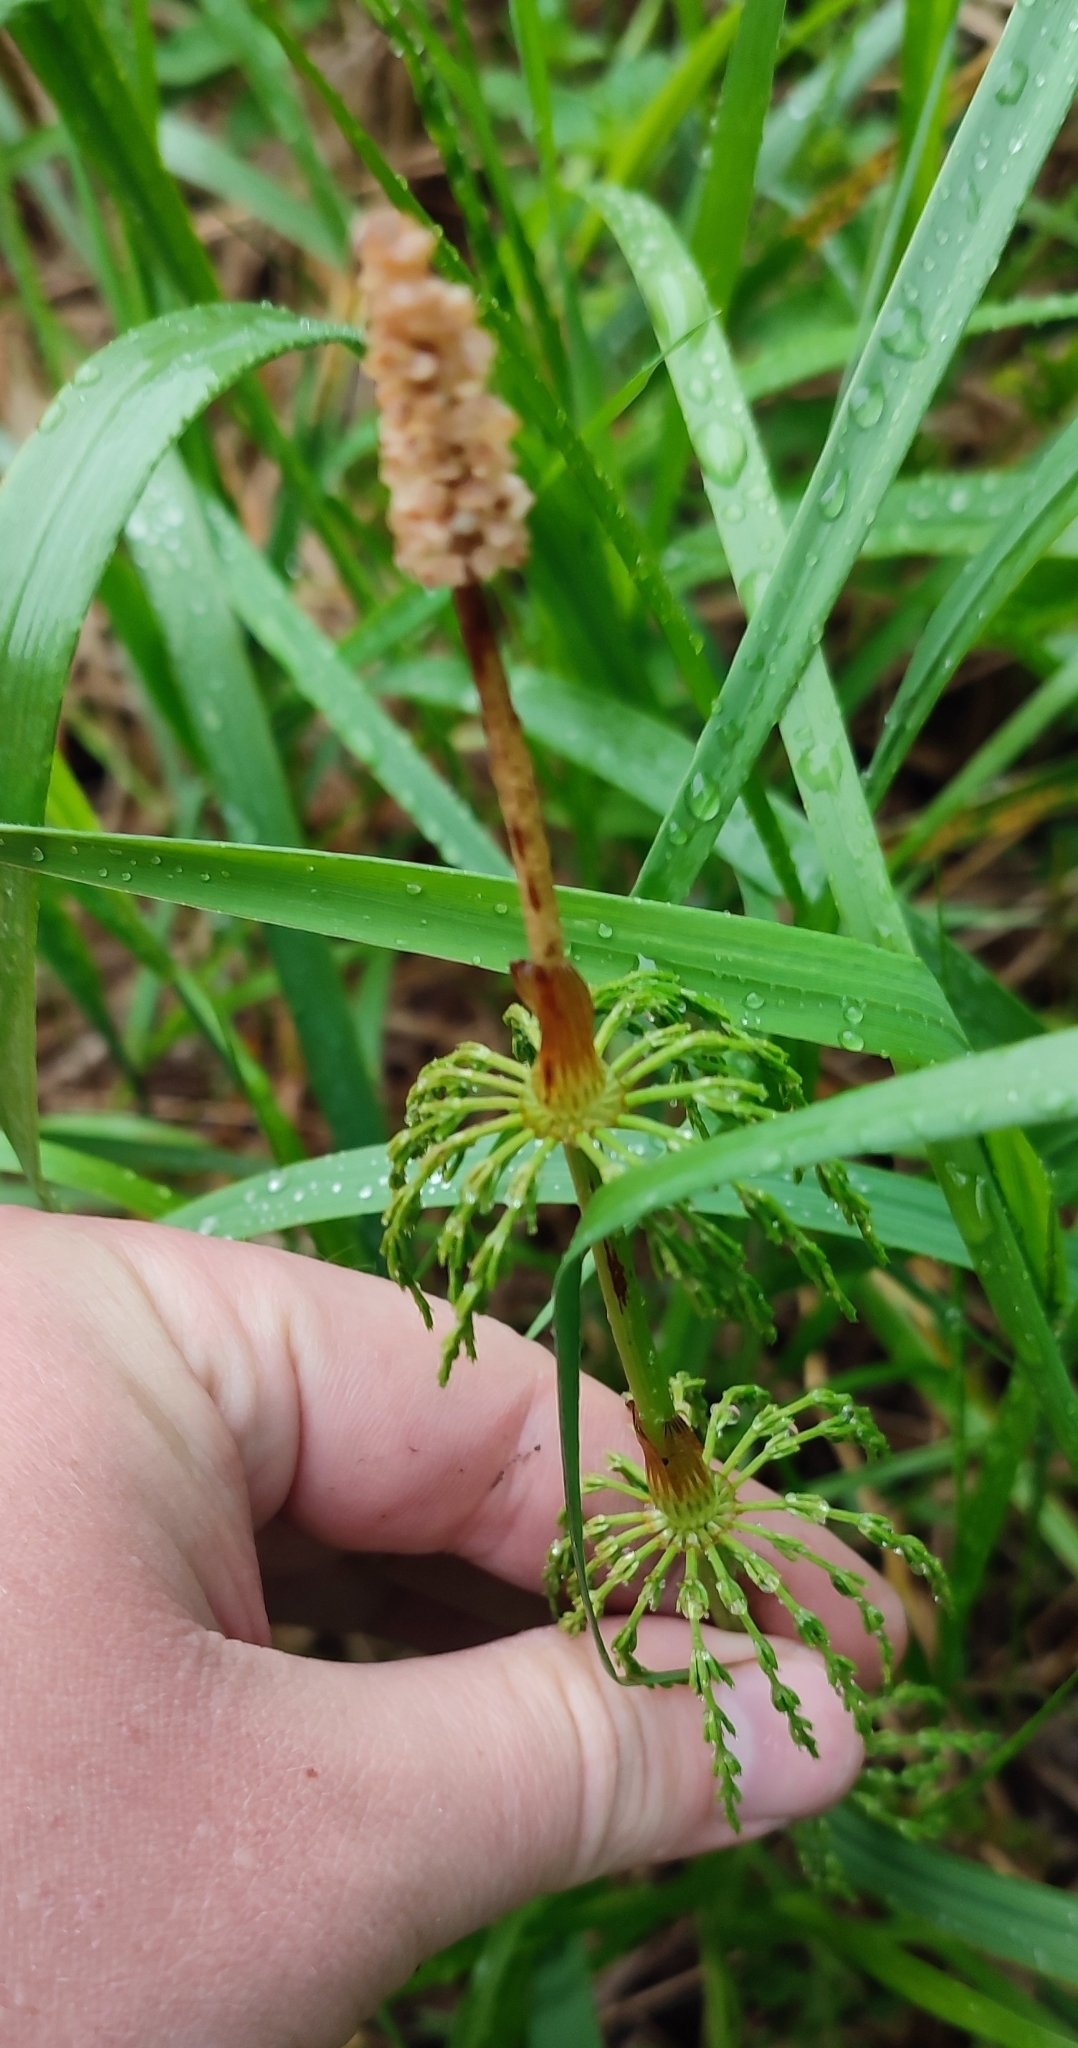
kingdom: Plantae
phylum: Tracheophyta
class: Polypodiopsida
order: Equisetales
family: Equisetaceae
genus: Equisetum
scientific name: Equisetum sylvaticum
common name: Wood horsetail
